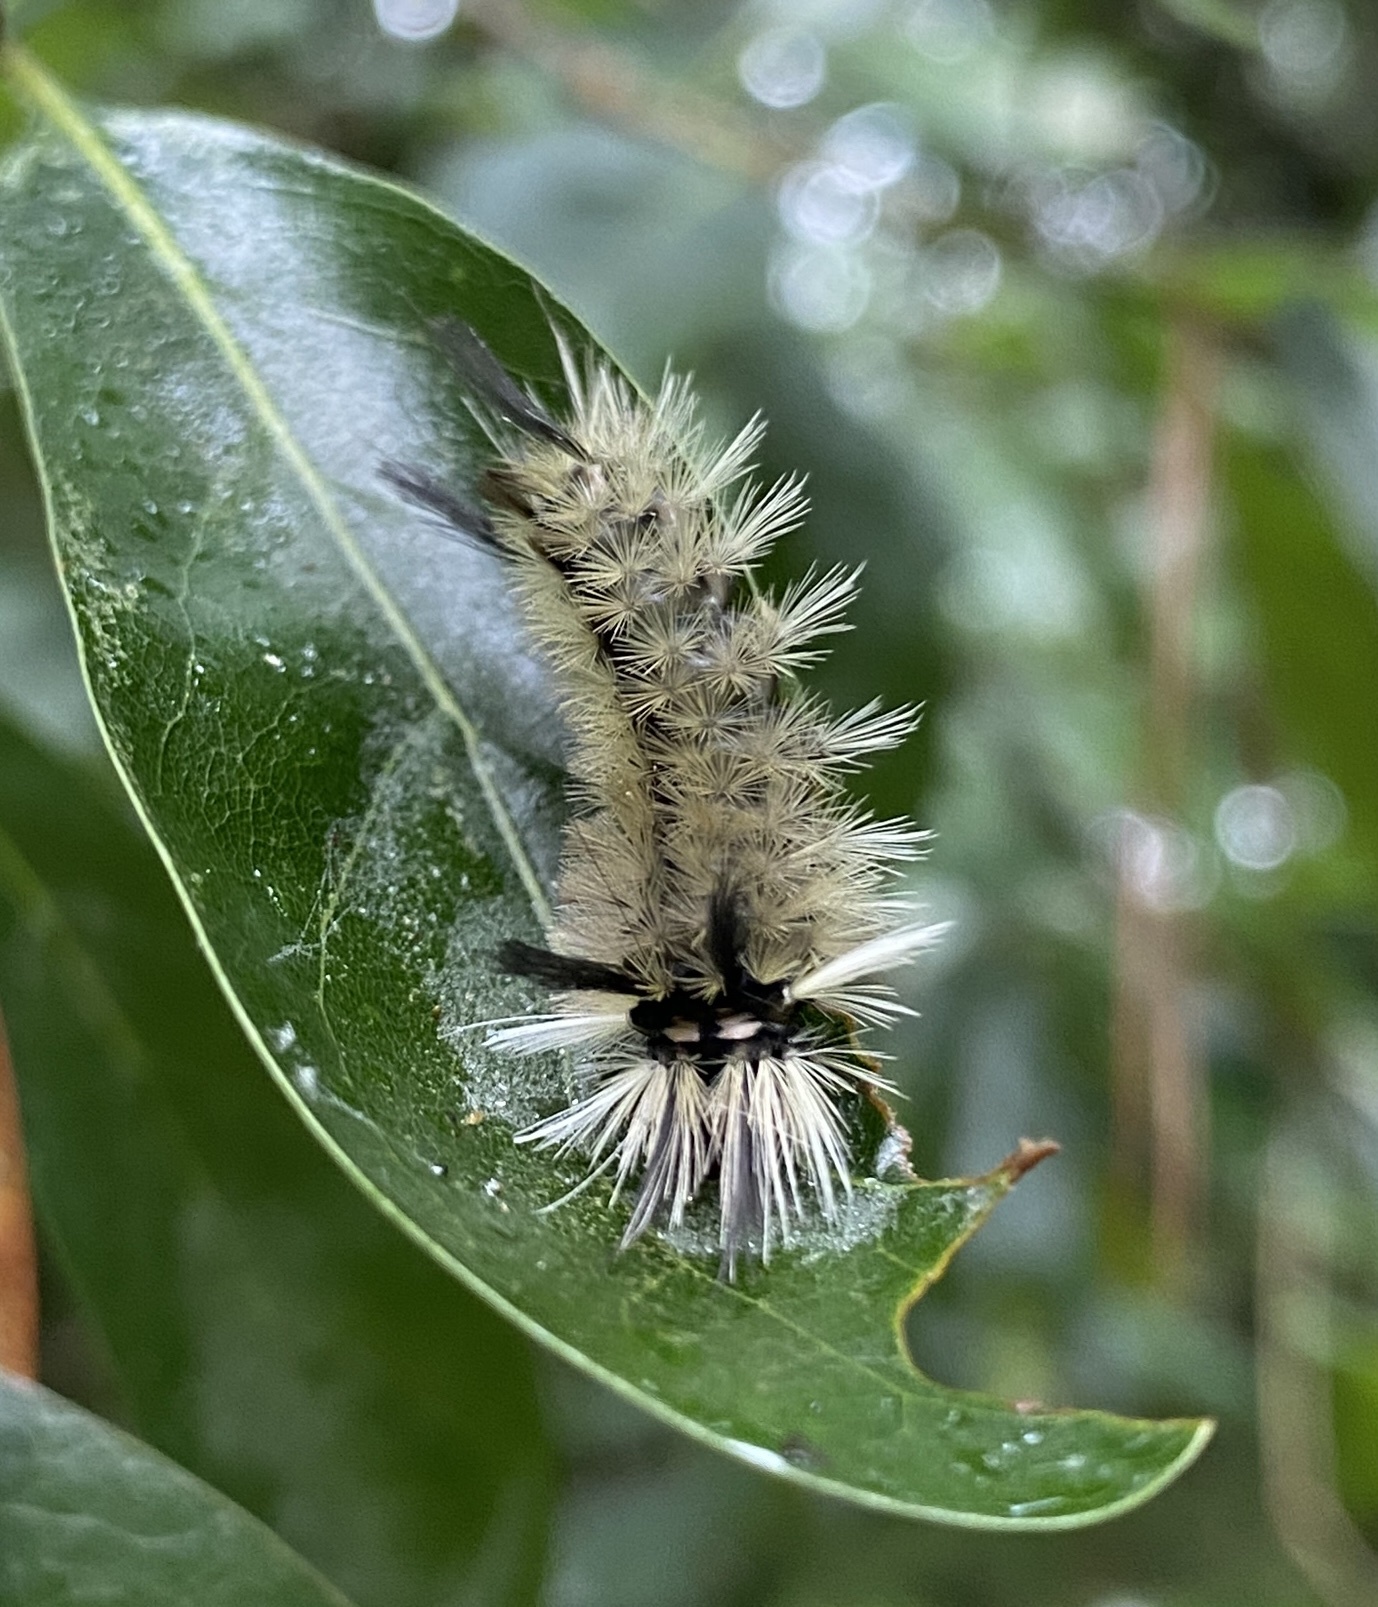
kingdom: Animalia
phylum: Arthropoda
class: Insecta
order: Lepidoptera
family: Erebidae
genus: Halysidota
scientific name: Halysidota tessellaris
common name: Banded tussock moth
